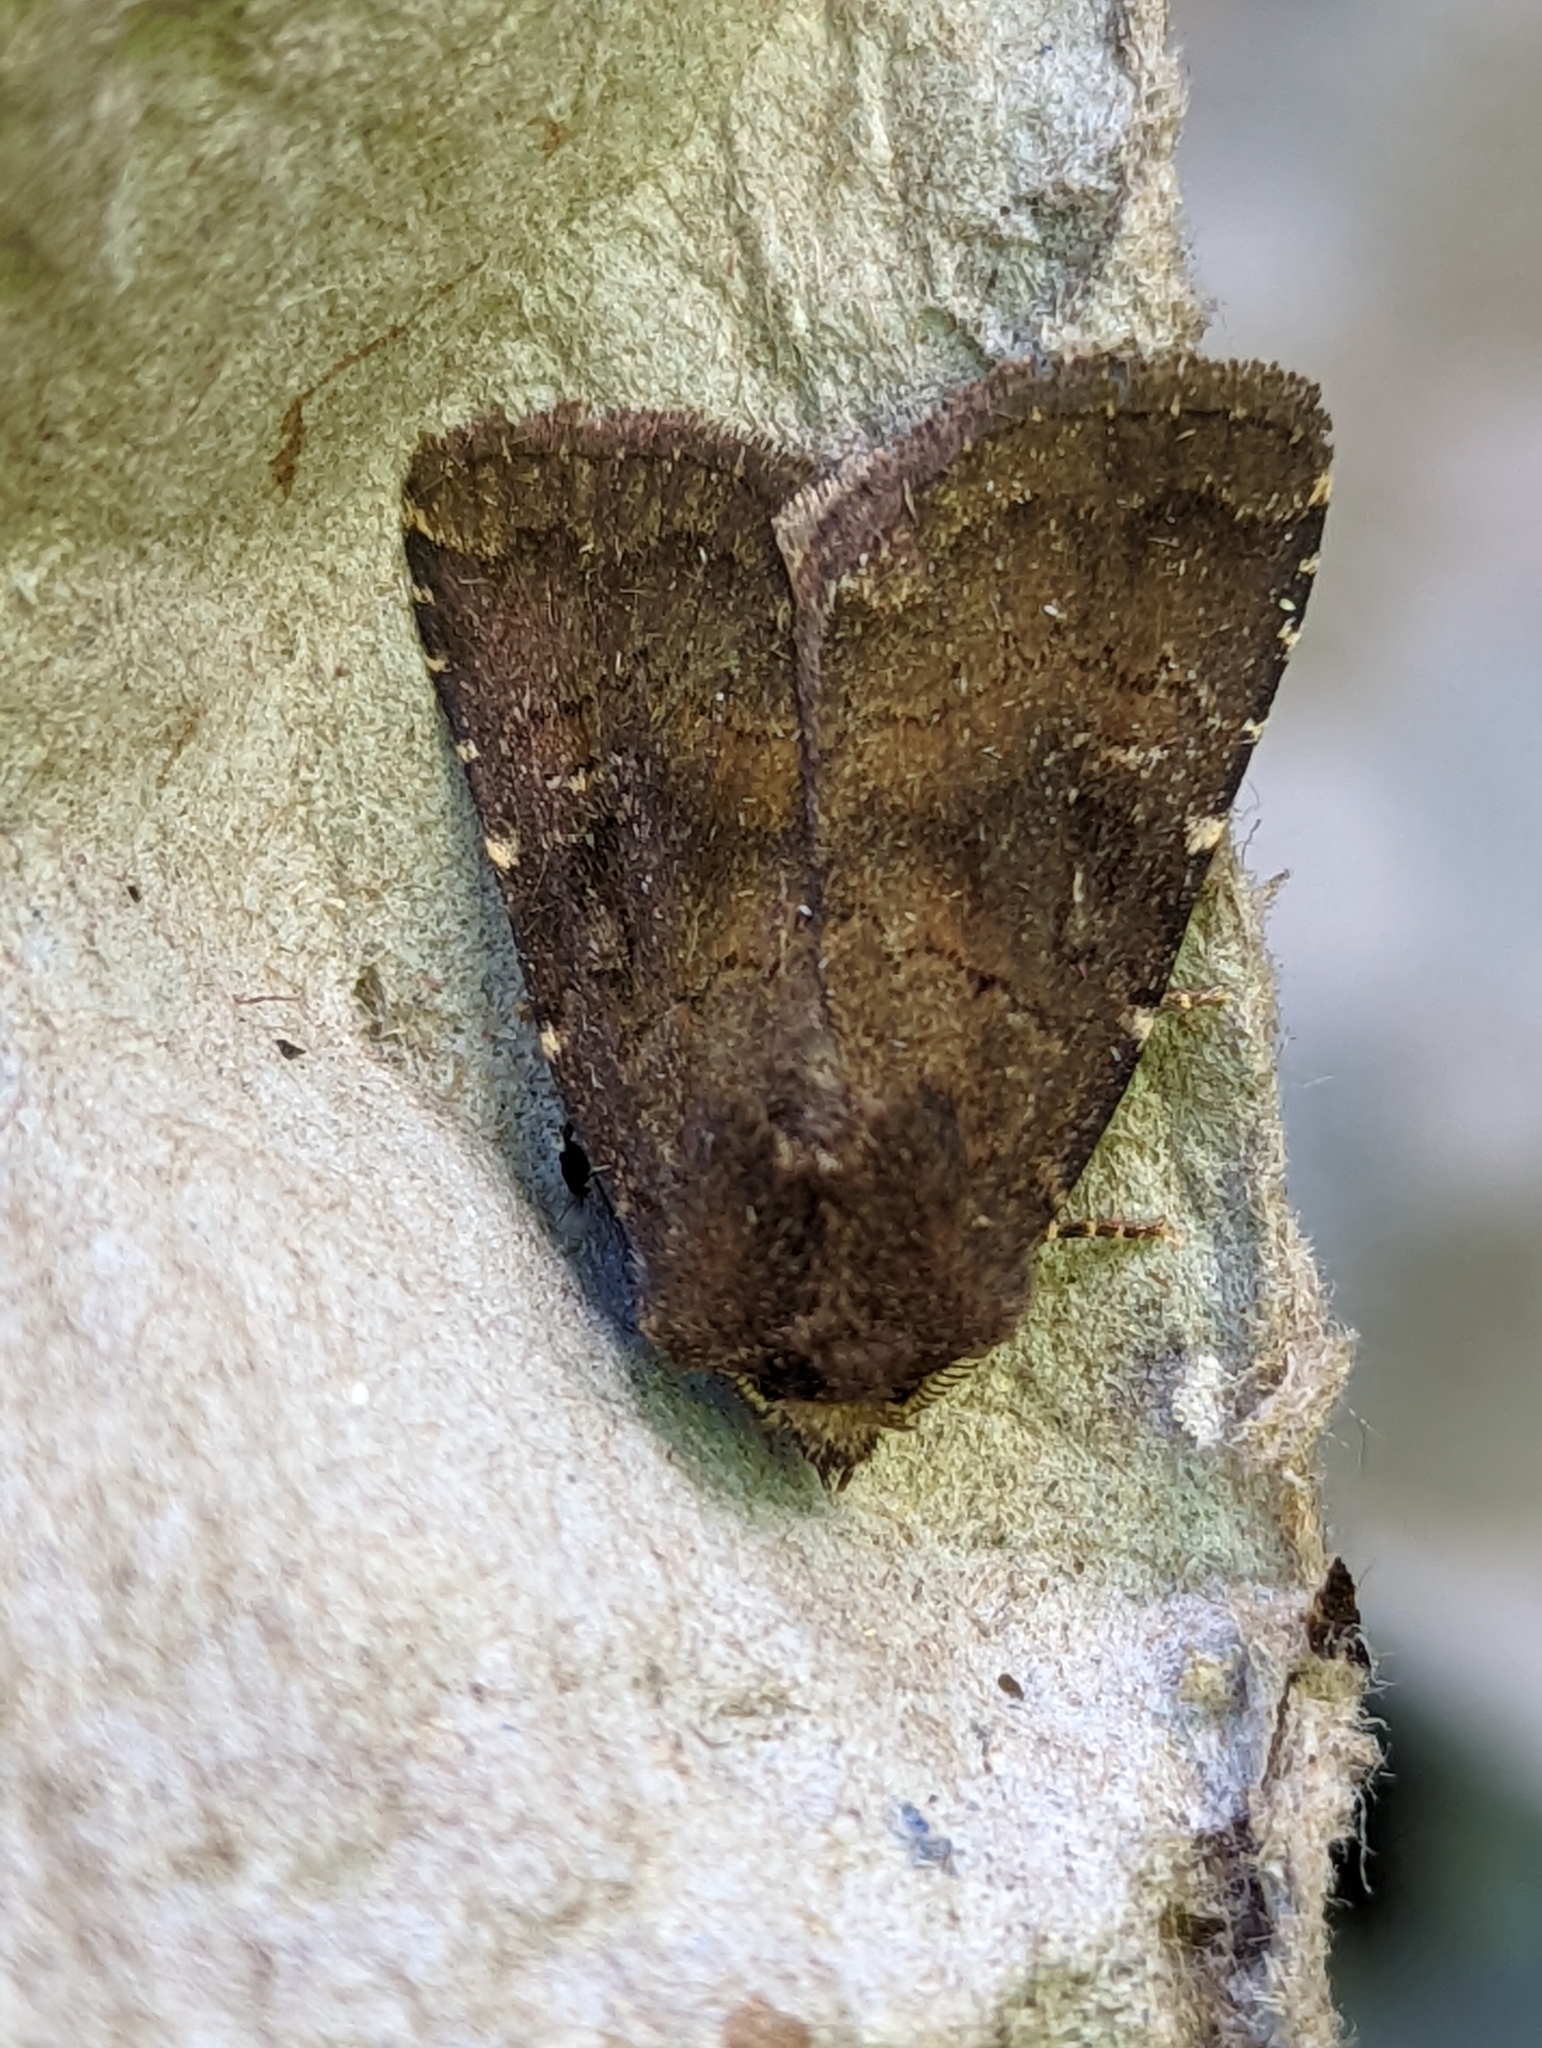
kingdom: Animalia
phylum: Arthropoda
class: Insecta
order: Lepidoptera
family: Noctuidae
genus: Charanyca
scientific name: Charanyca ferruginea
